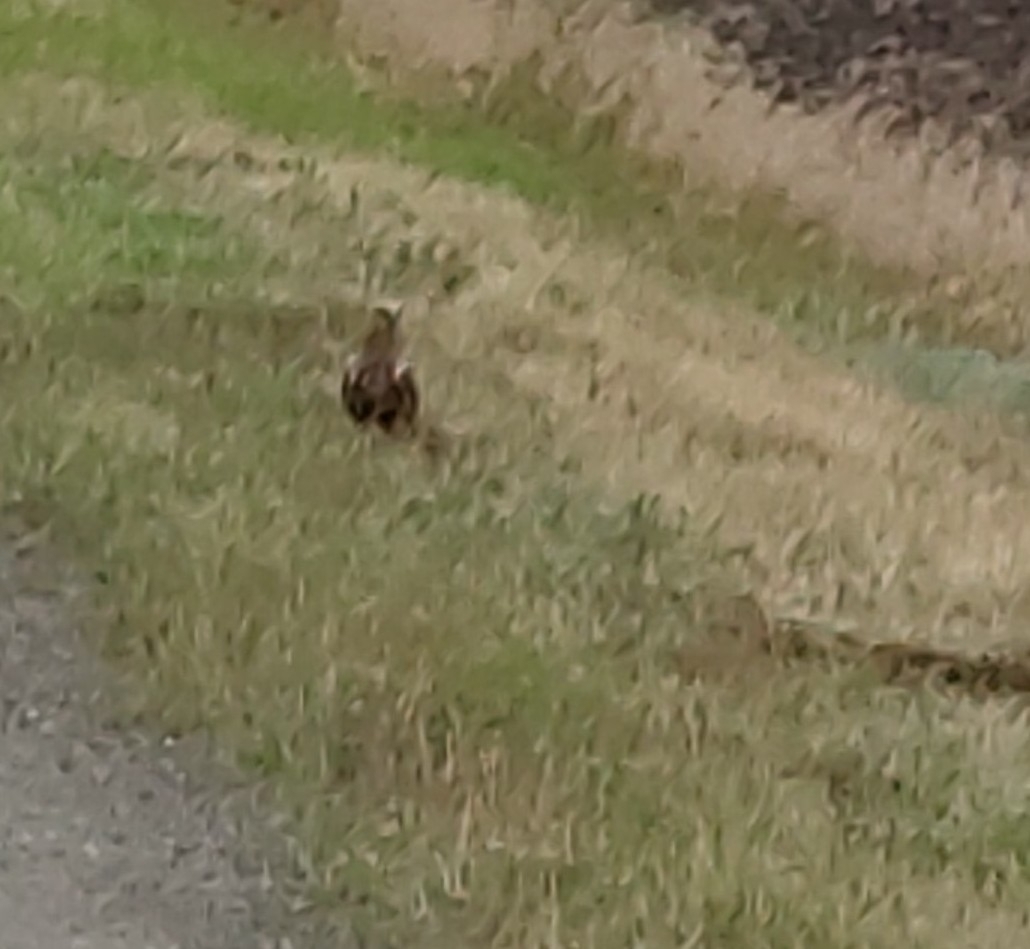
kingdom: Animalia
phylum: Chordata
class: Aves
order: Accipitriformes
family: Accipitridae
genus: Circus
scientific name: Circus aeruginosus
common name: Western marsh harrier
